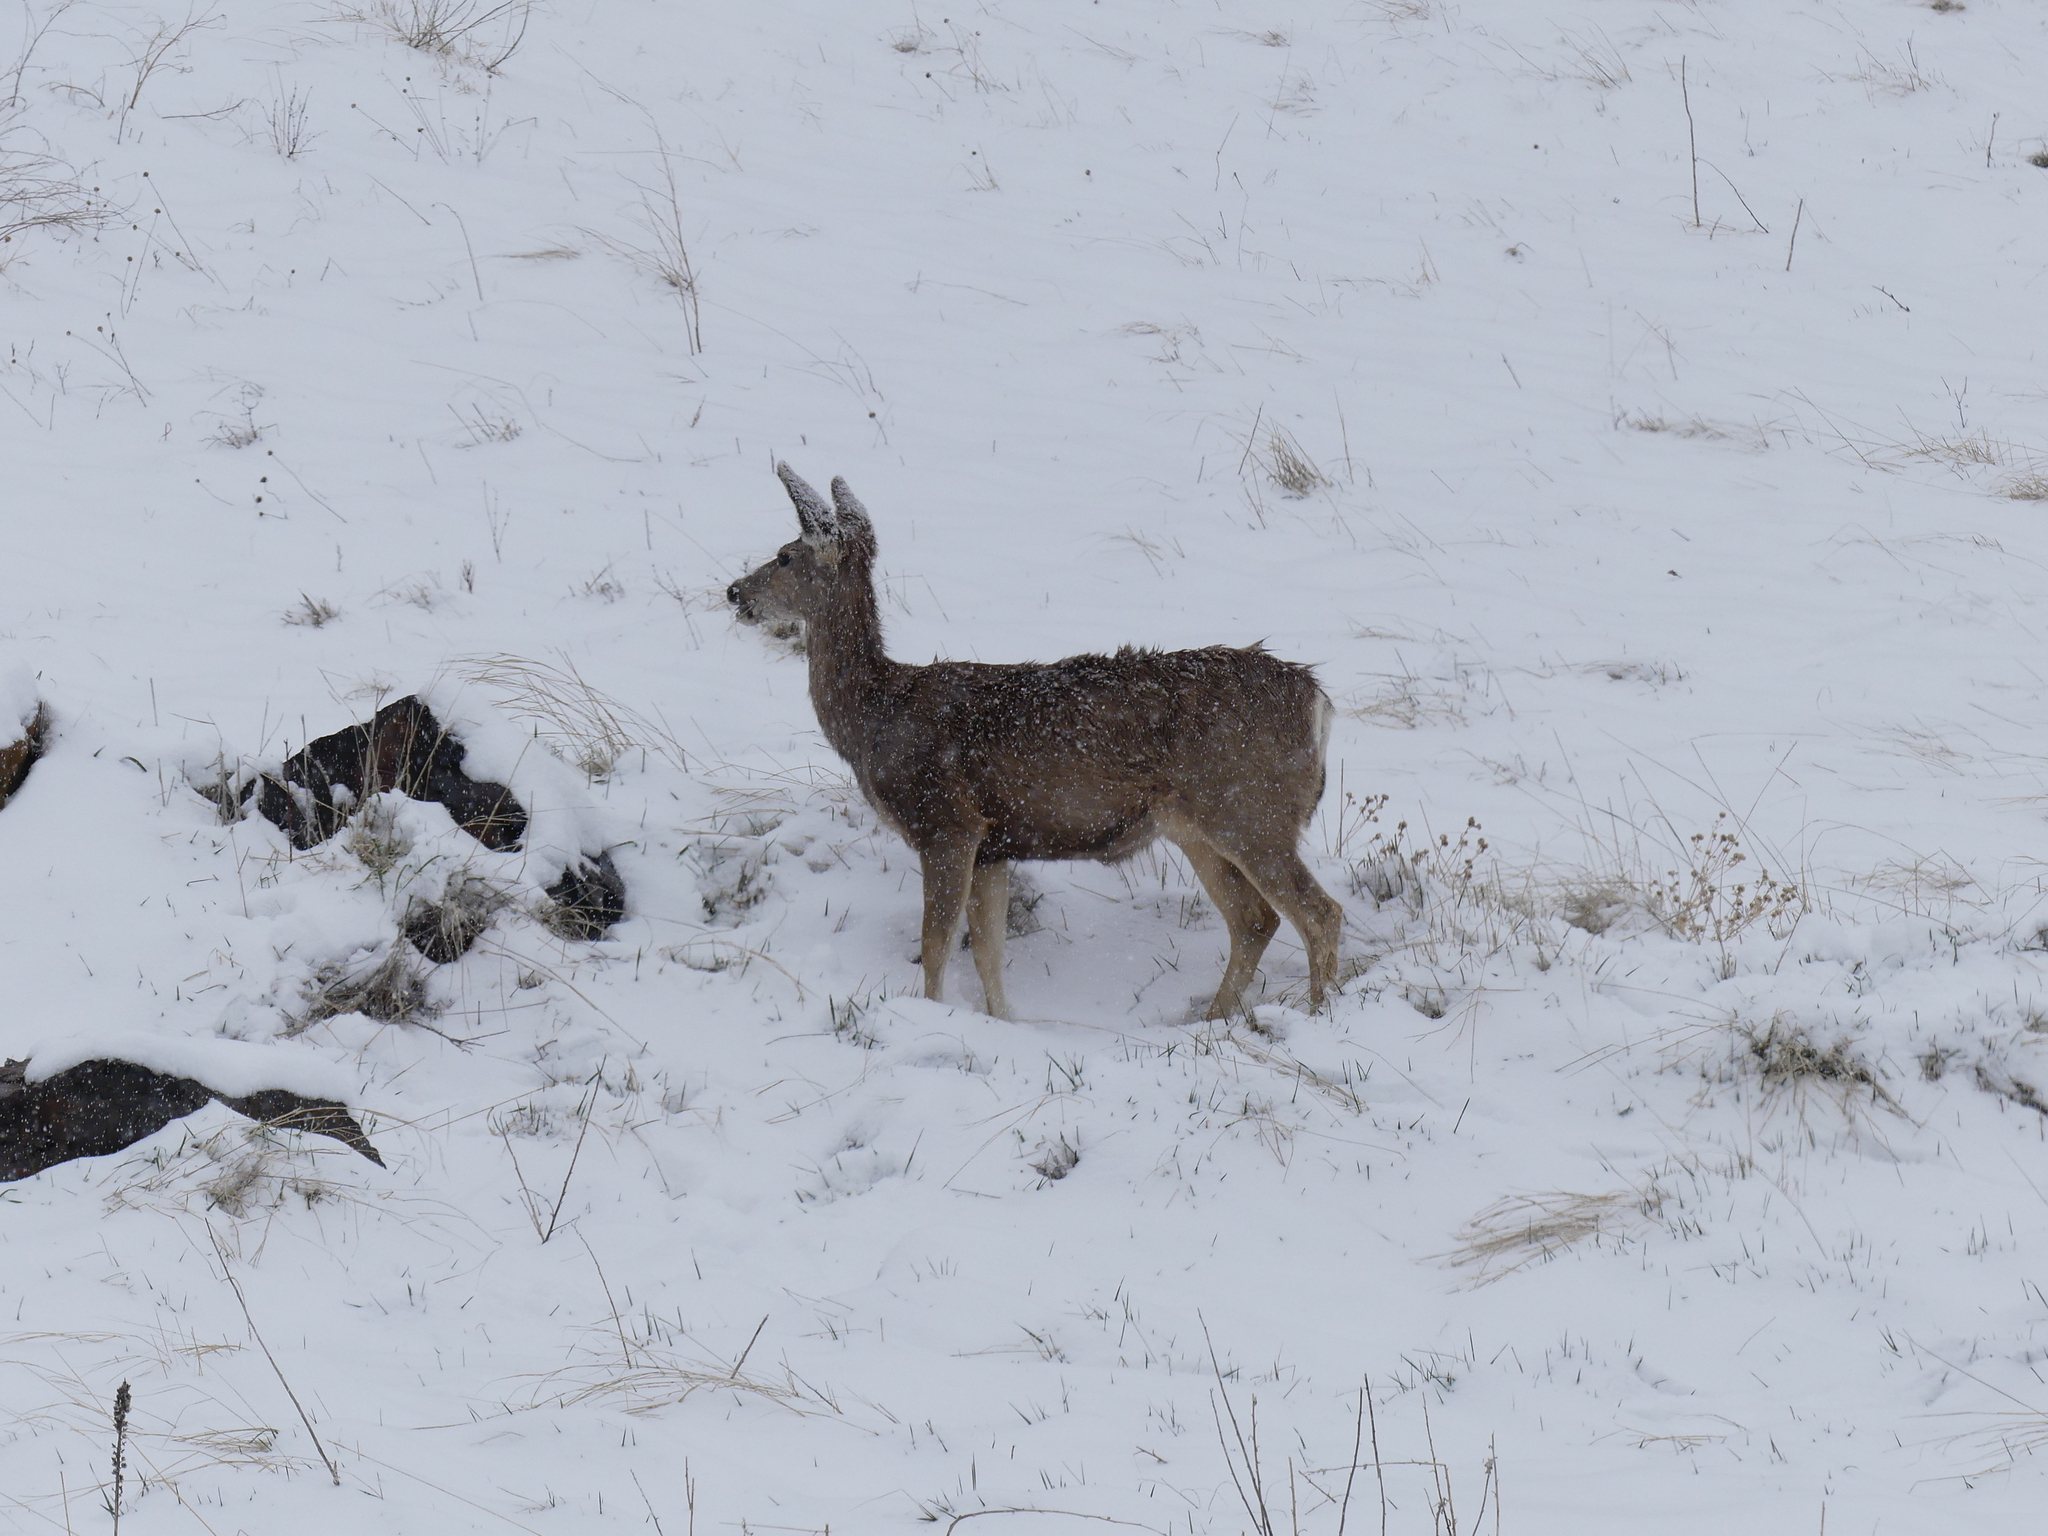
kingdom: Animalia
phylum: Chordata
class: Mammalia
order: Artiodactyla
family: Cervidae
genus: Odocoileus
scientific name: Odocoileus hemionus
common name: Mule deer
